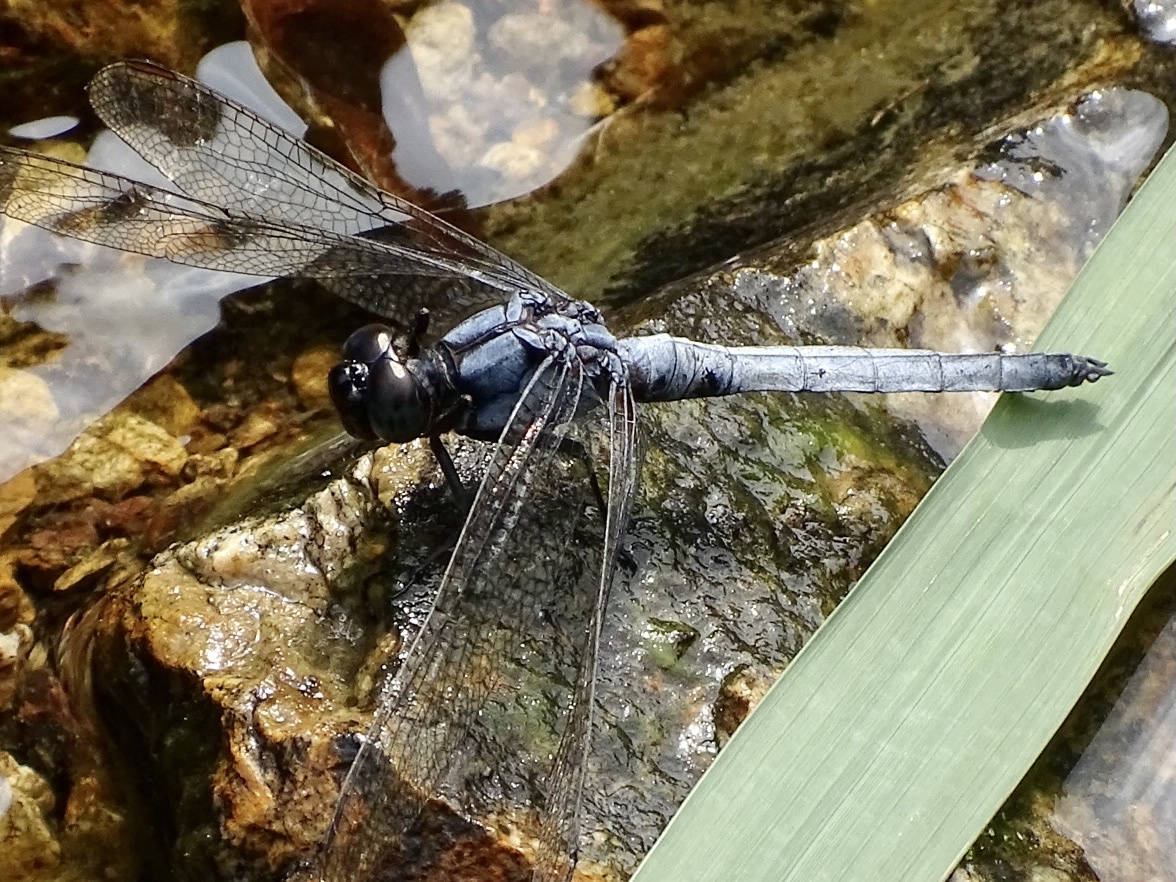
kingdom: Animalia
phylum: Arthropoda
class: Insecta
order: Odonata
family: Libellulidae
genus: Orthetrum
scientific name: Orthetrum glaucum
